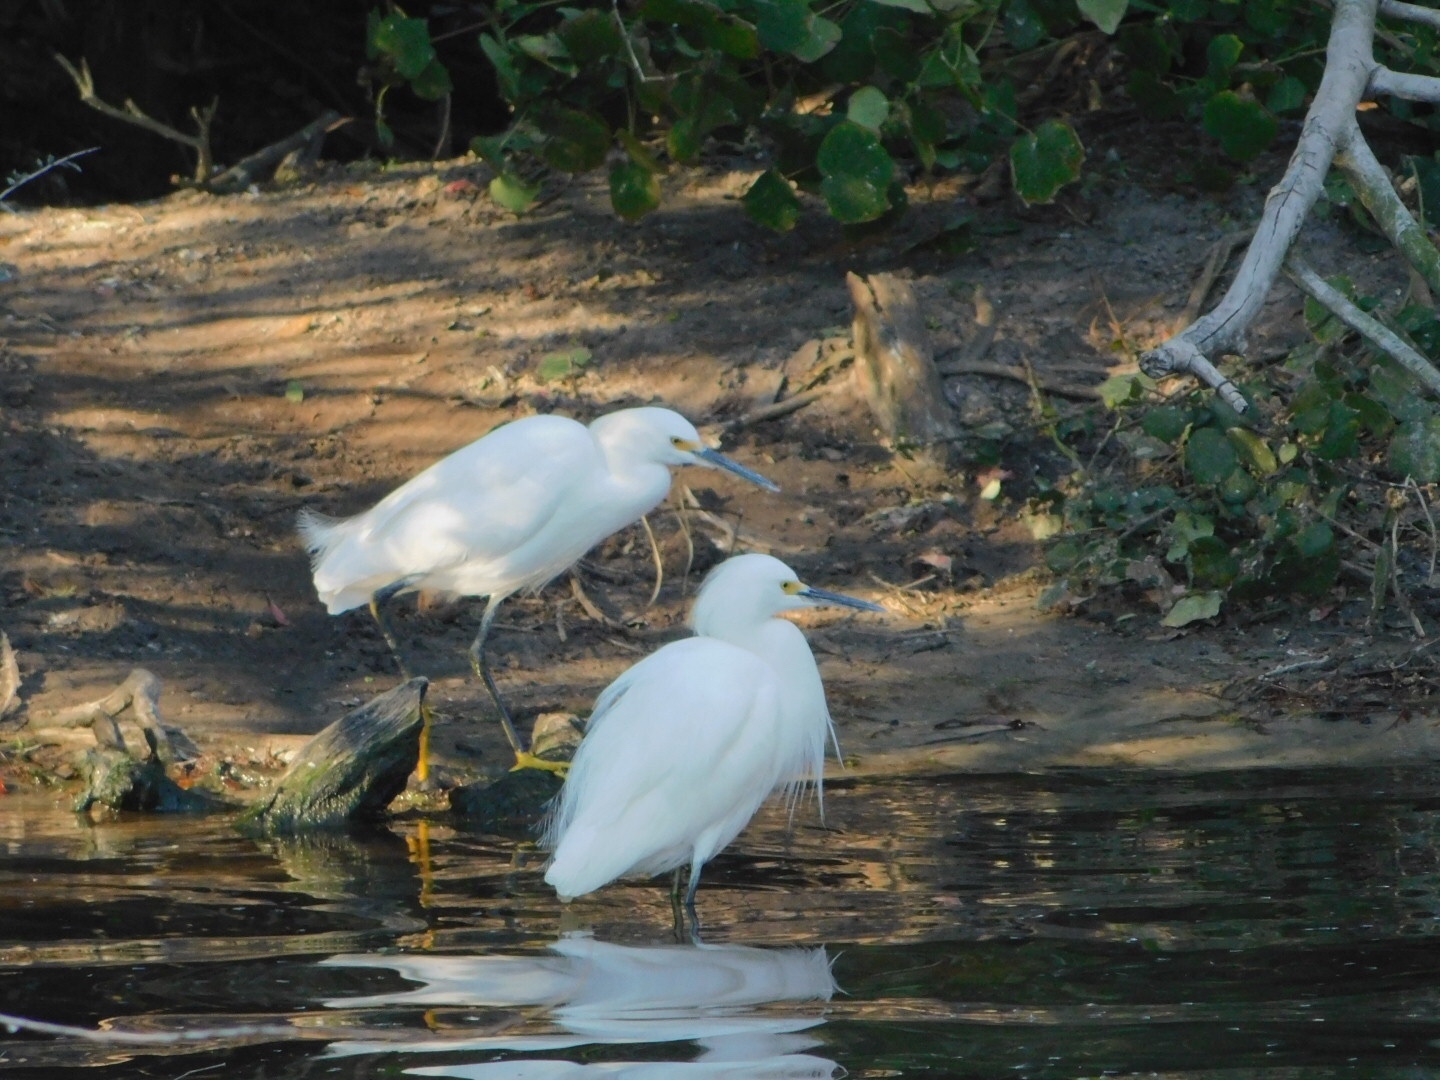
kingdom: Animalia
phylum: Chordata
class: Aves
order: Pelecaniformes
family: Ardeidae
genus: Egretta
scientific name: Egretta thula
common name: Snowy egret
